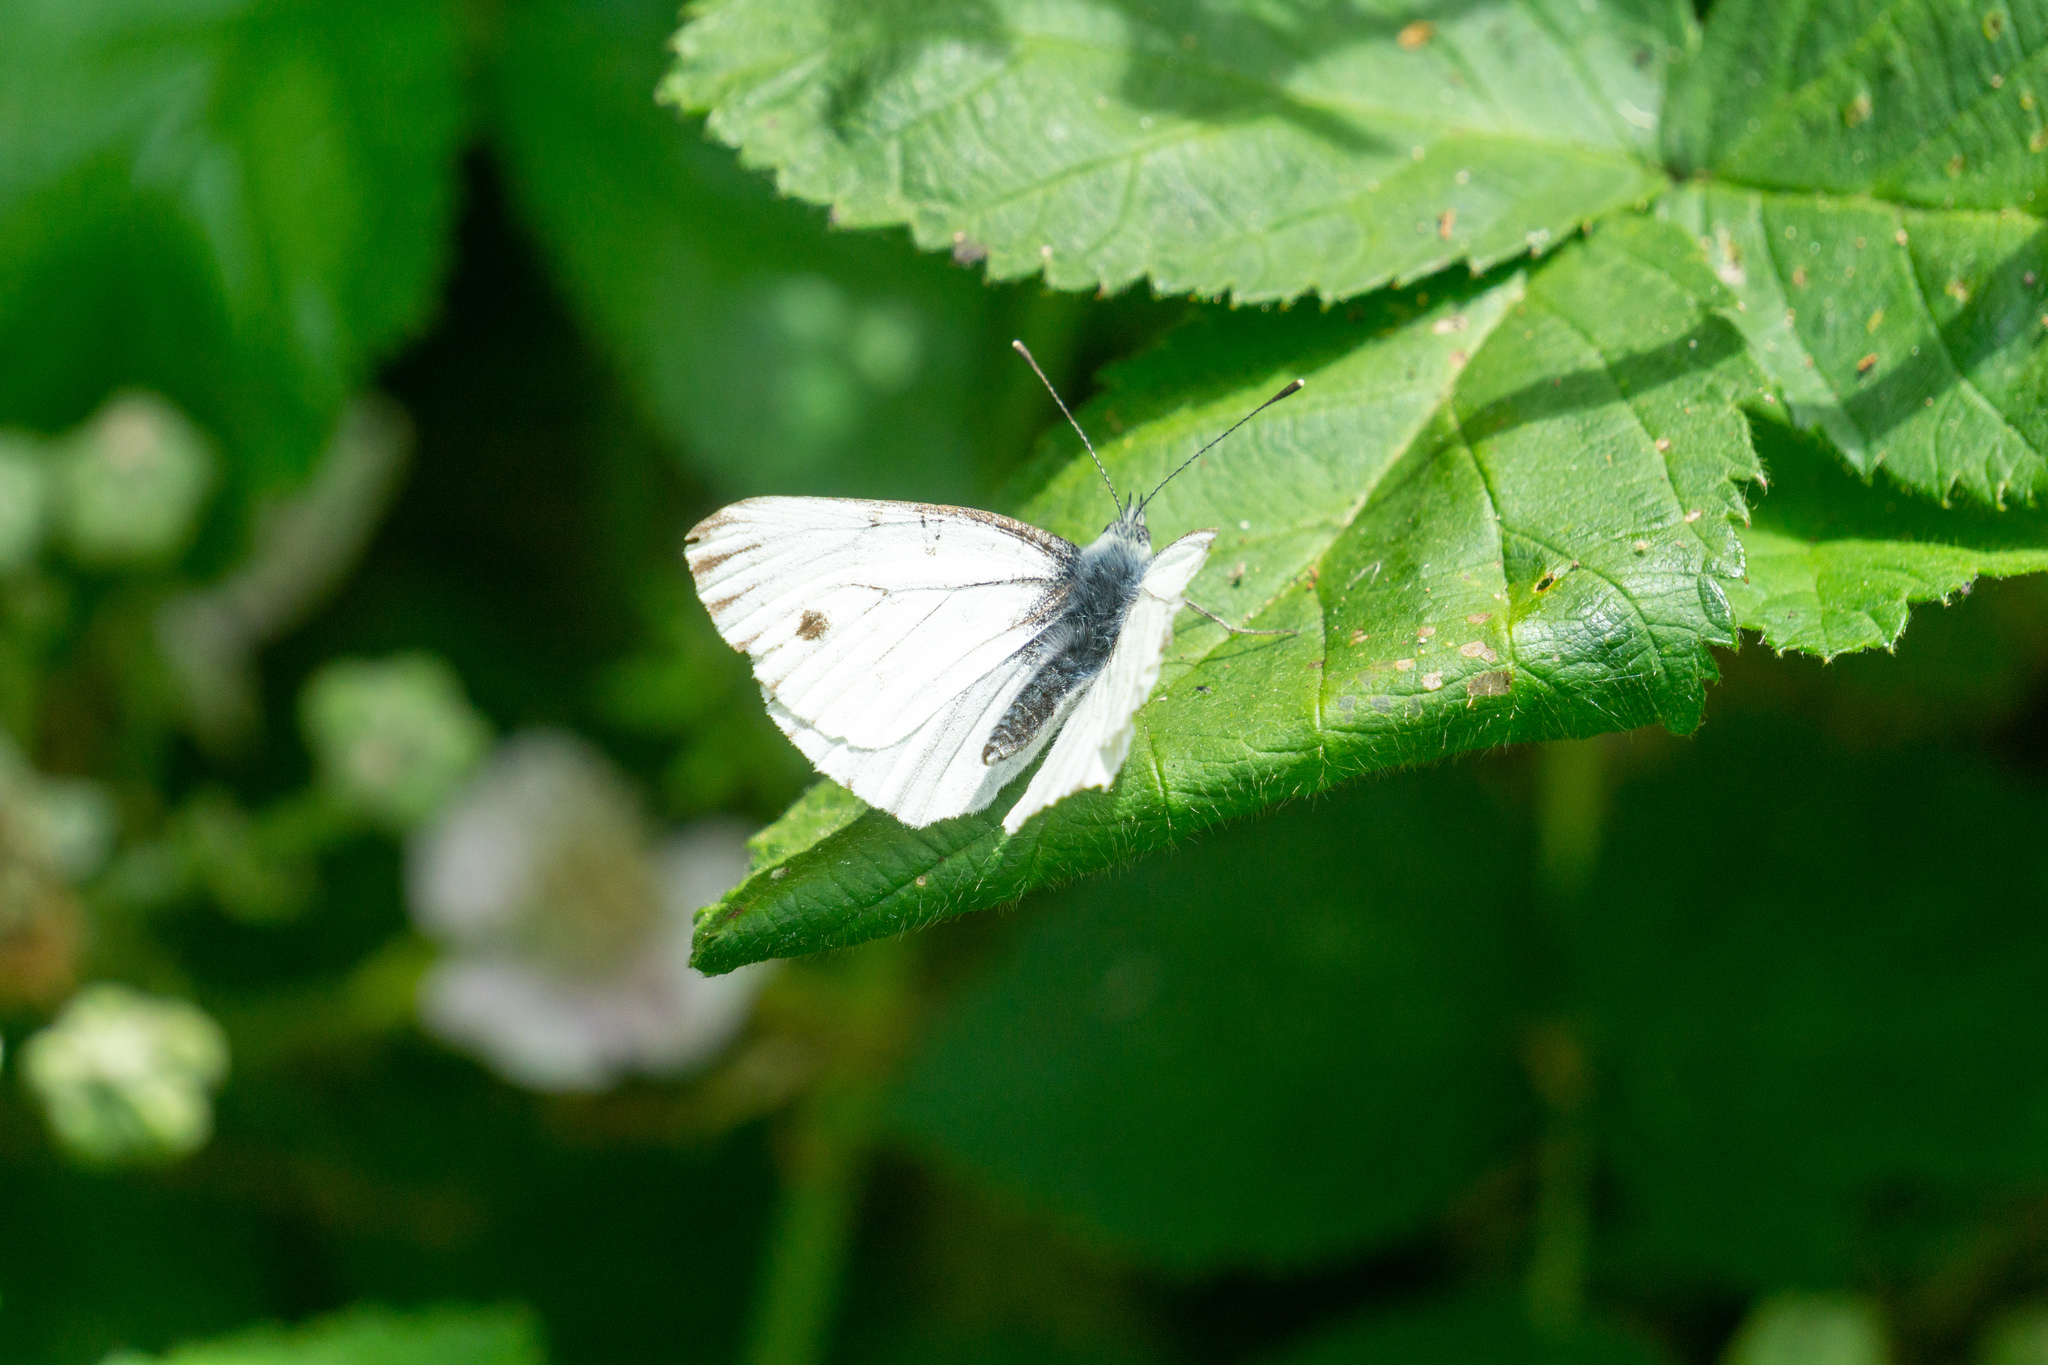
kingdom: Animalia
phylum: Arthropoda
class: Insecta
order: Lepidoptera
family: Pieridae
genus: Pieris
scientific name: Pieris marginalis
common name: Margined white
